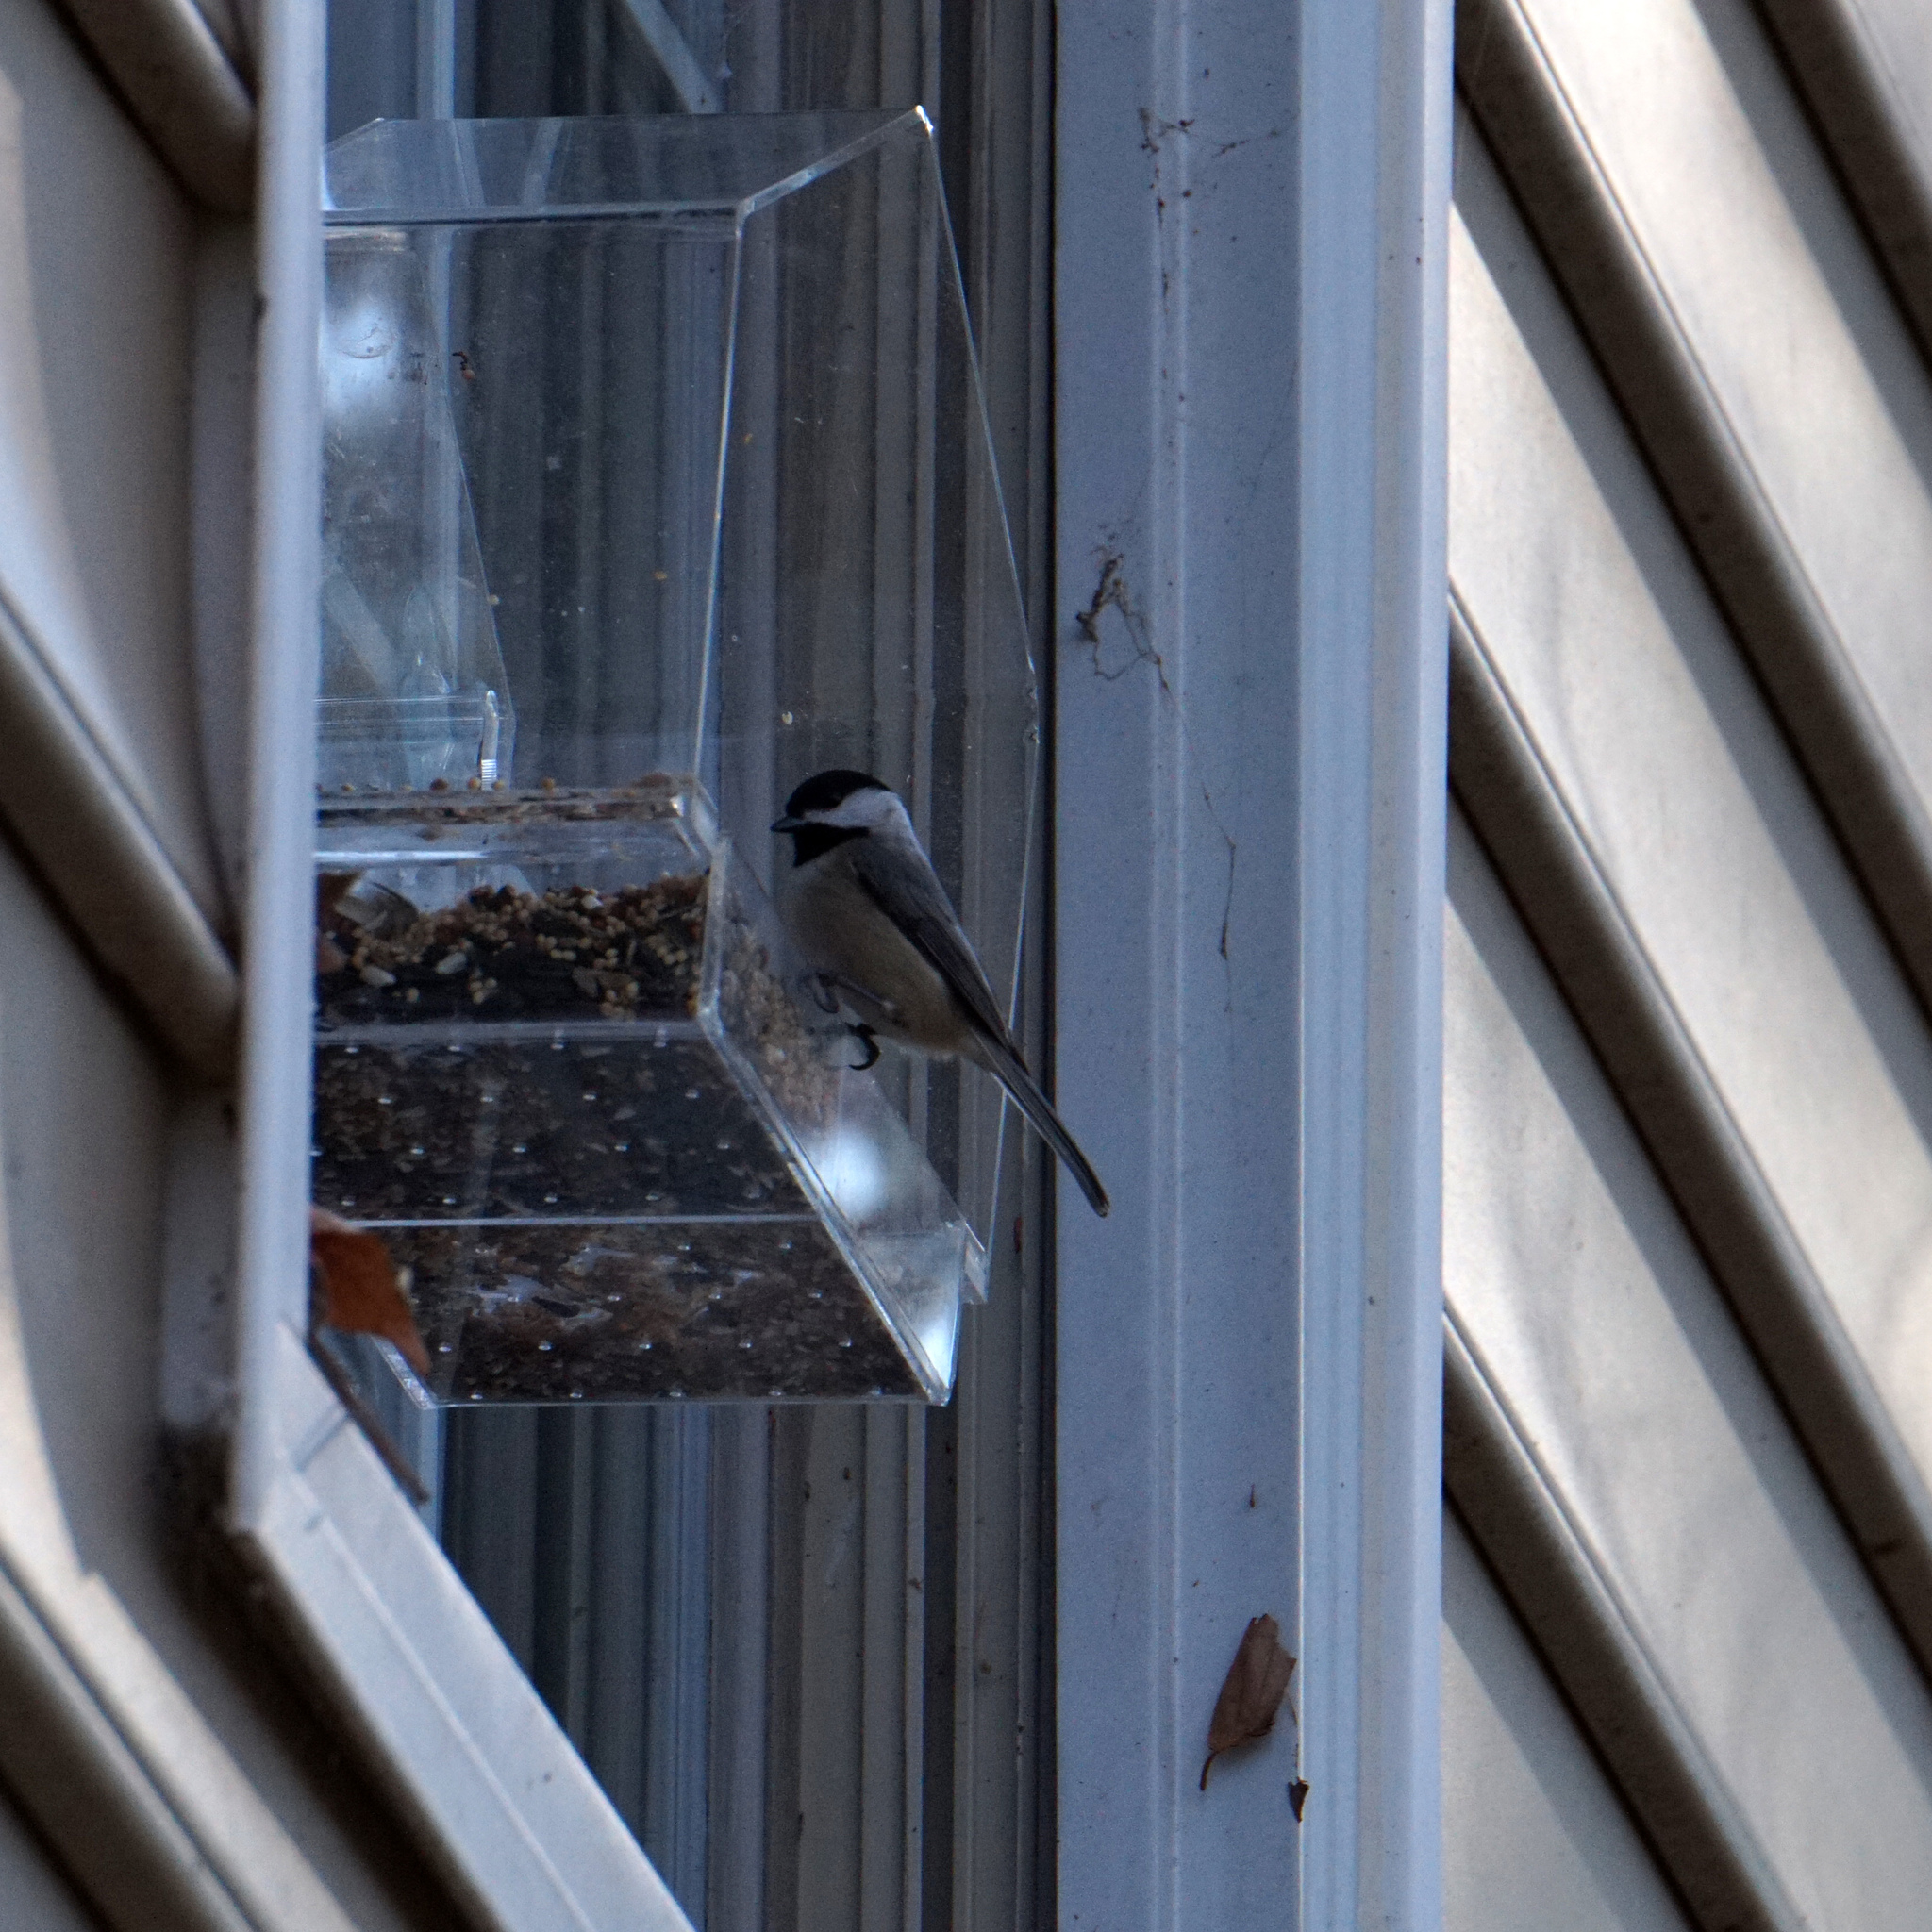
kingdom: Animalia
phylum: Chordata
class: Aves
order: Passeriformes
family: Paridae
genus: Poecile
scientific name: Poecile carolinensis
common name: Carolina chickadee
